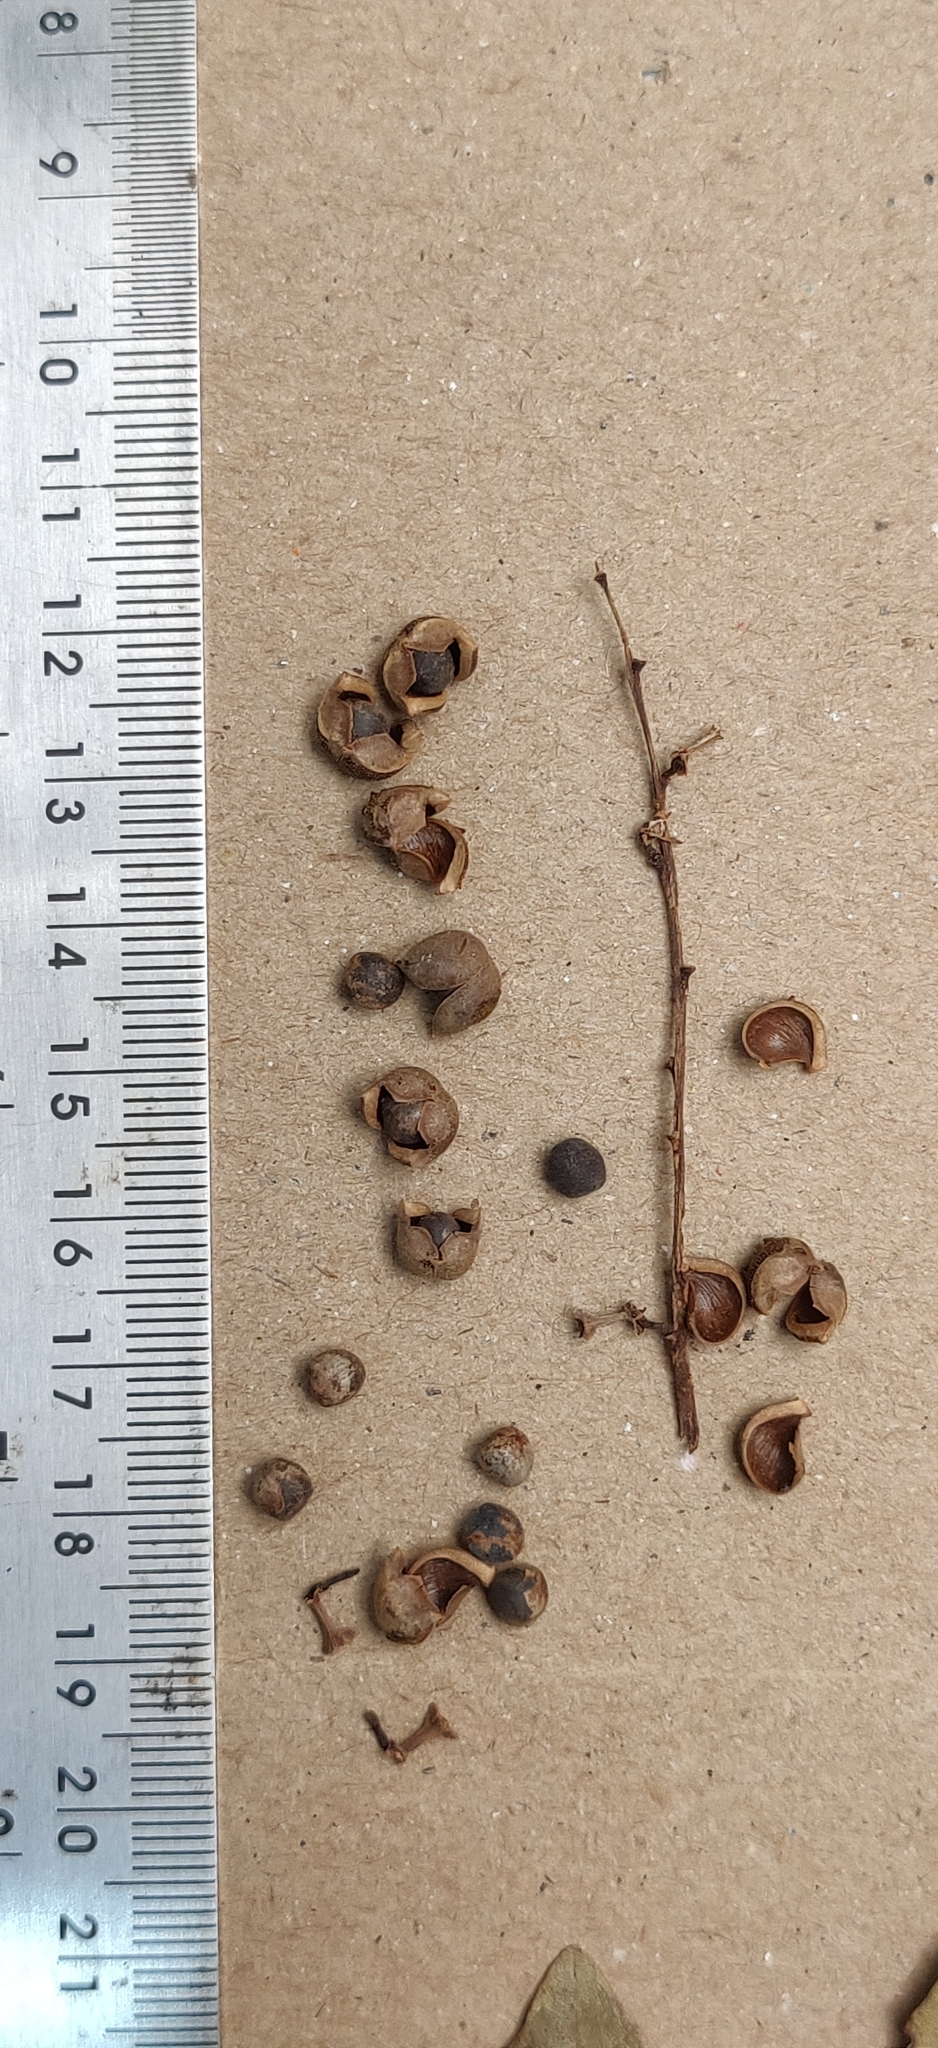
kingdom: Plantae
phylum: Tracheophyta
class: Magnoliopsida
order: Malpighiales
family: Euphorbiaceae
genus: Mallotus
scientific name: Mallotus resinosus
